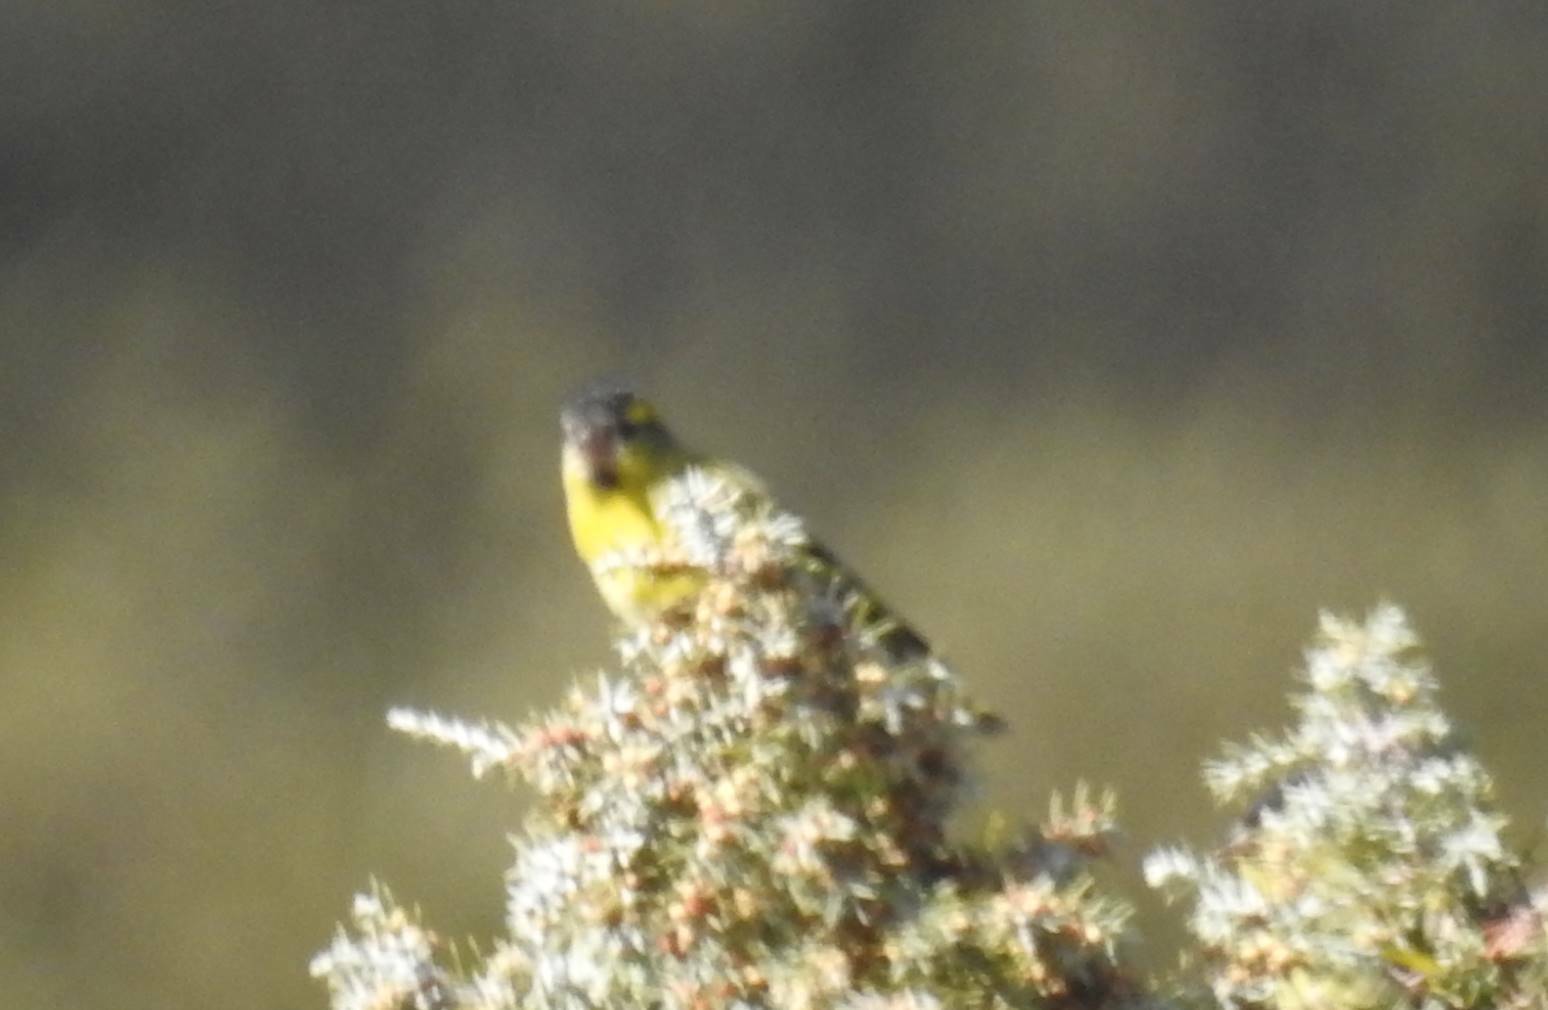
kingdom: Animalia
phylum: Chordata
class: Aves
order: Passeriformes
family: Fringillidae
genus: Spinus
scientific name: Spinus spinus
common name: Eurasian siskin
